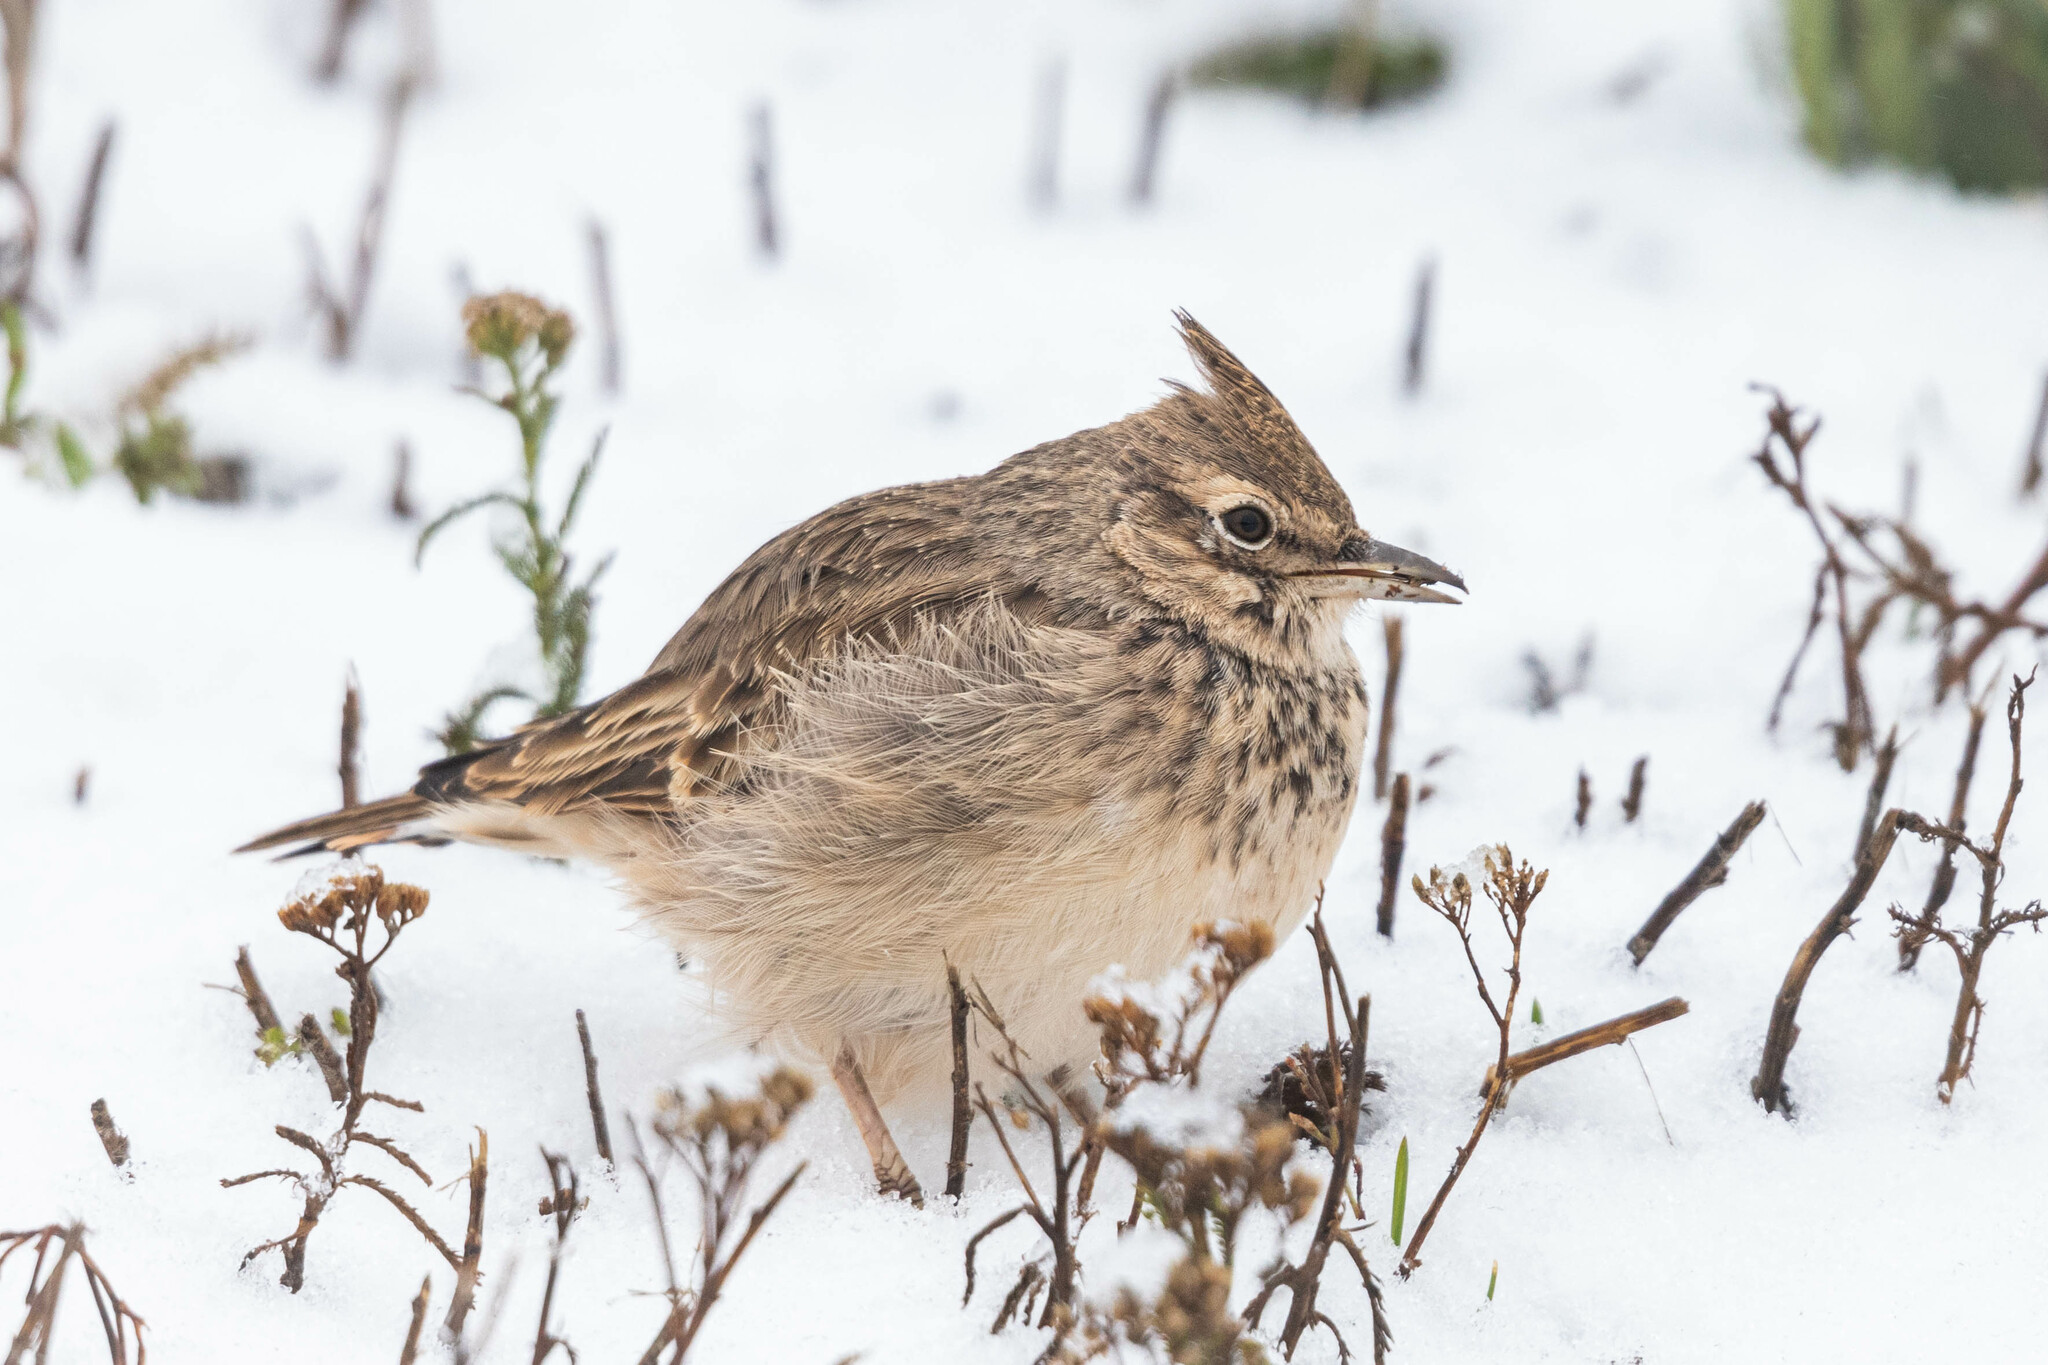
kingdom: Animalia
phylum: Chordata
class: Aves
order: Passeriformes
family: Alaudidae
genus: Galerida
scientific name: Galerida cristata
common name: Crested lark
